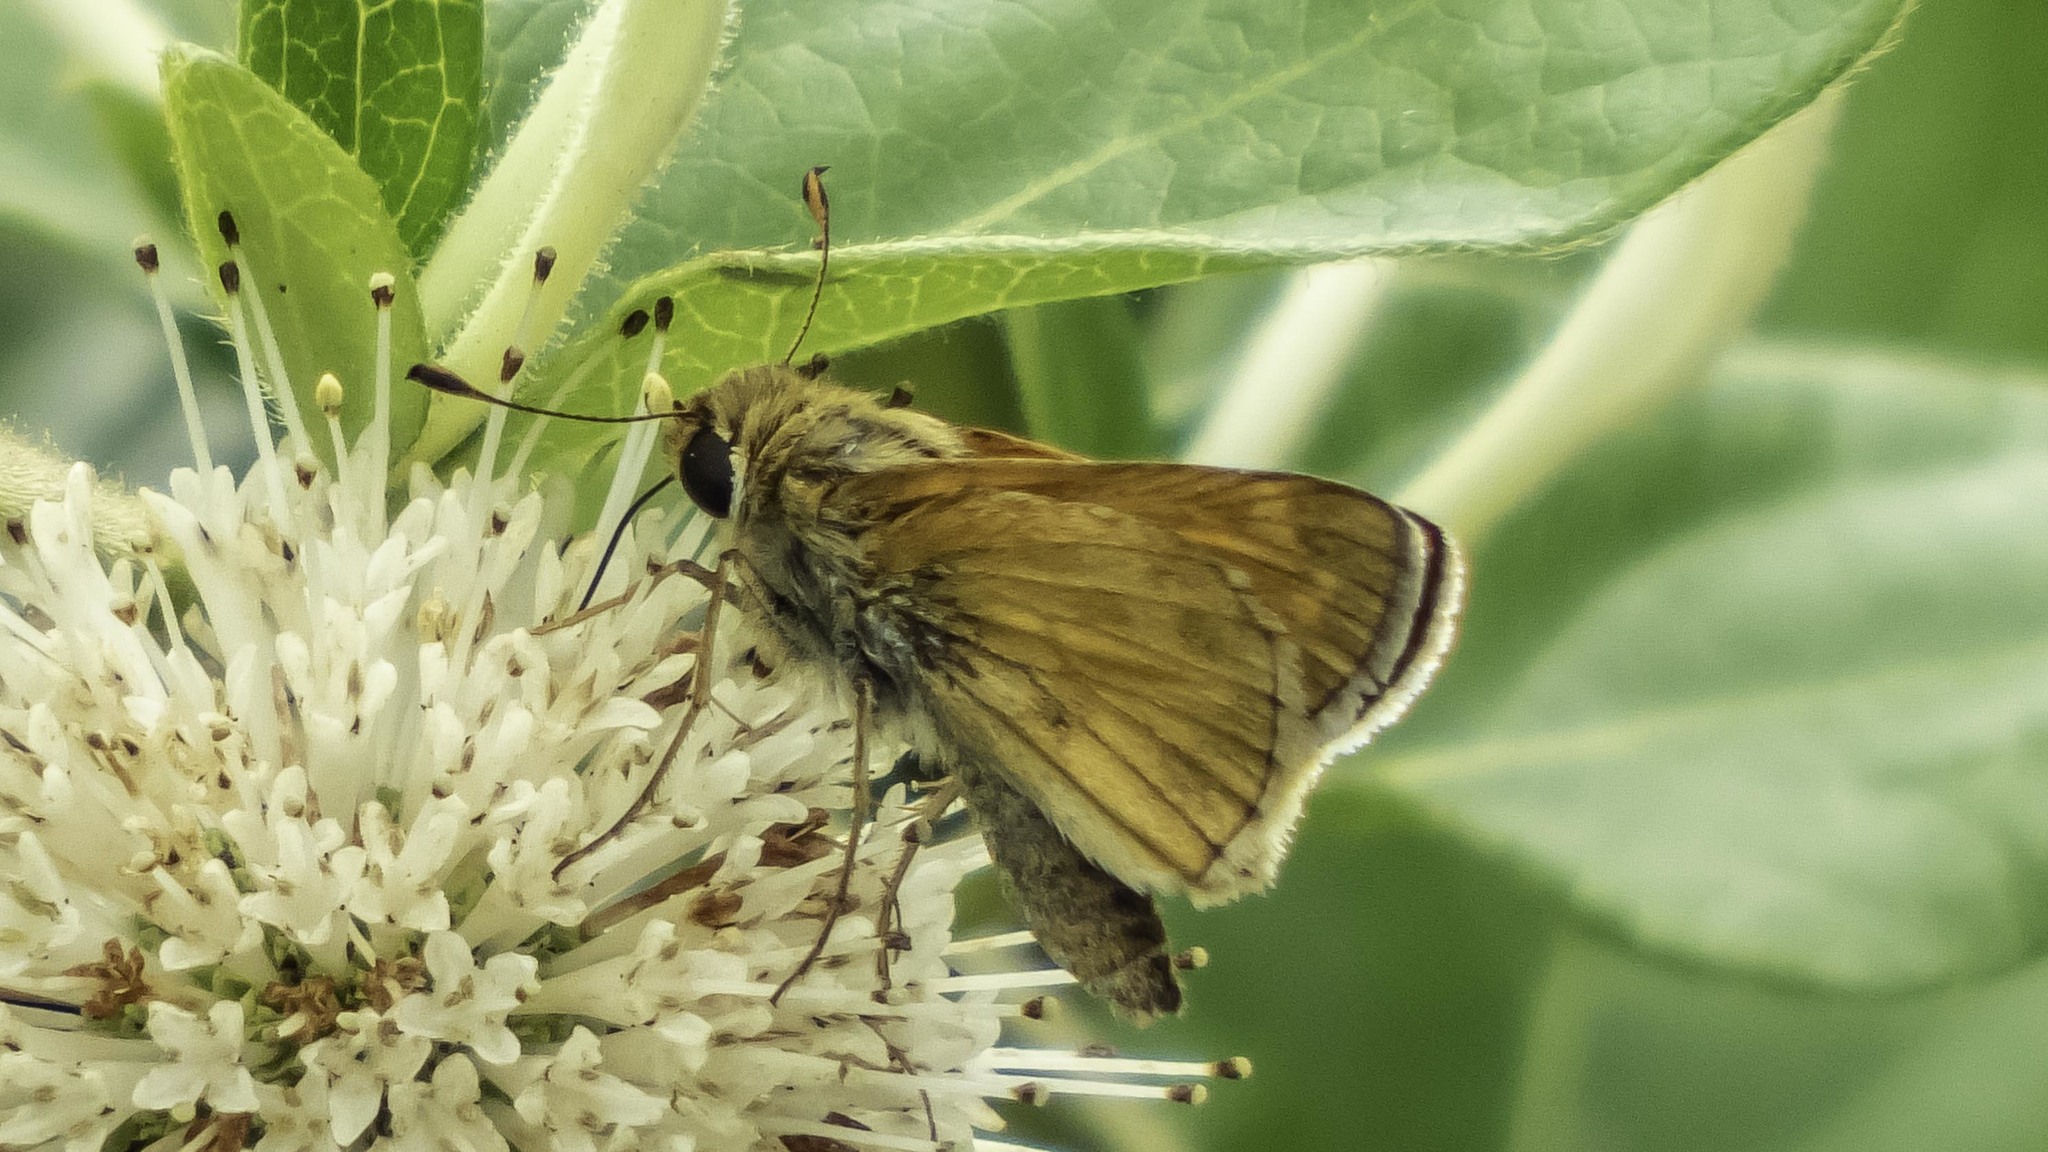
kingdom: Animalia
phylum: Arthropoda
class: Insecta
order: Lepidoptera
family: Hesperiidae
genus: Atalopedes
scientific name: Atalopedes
